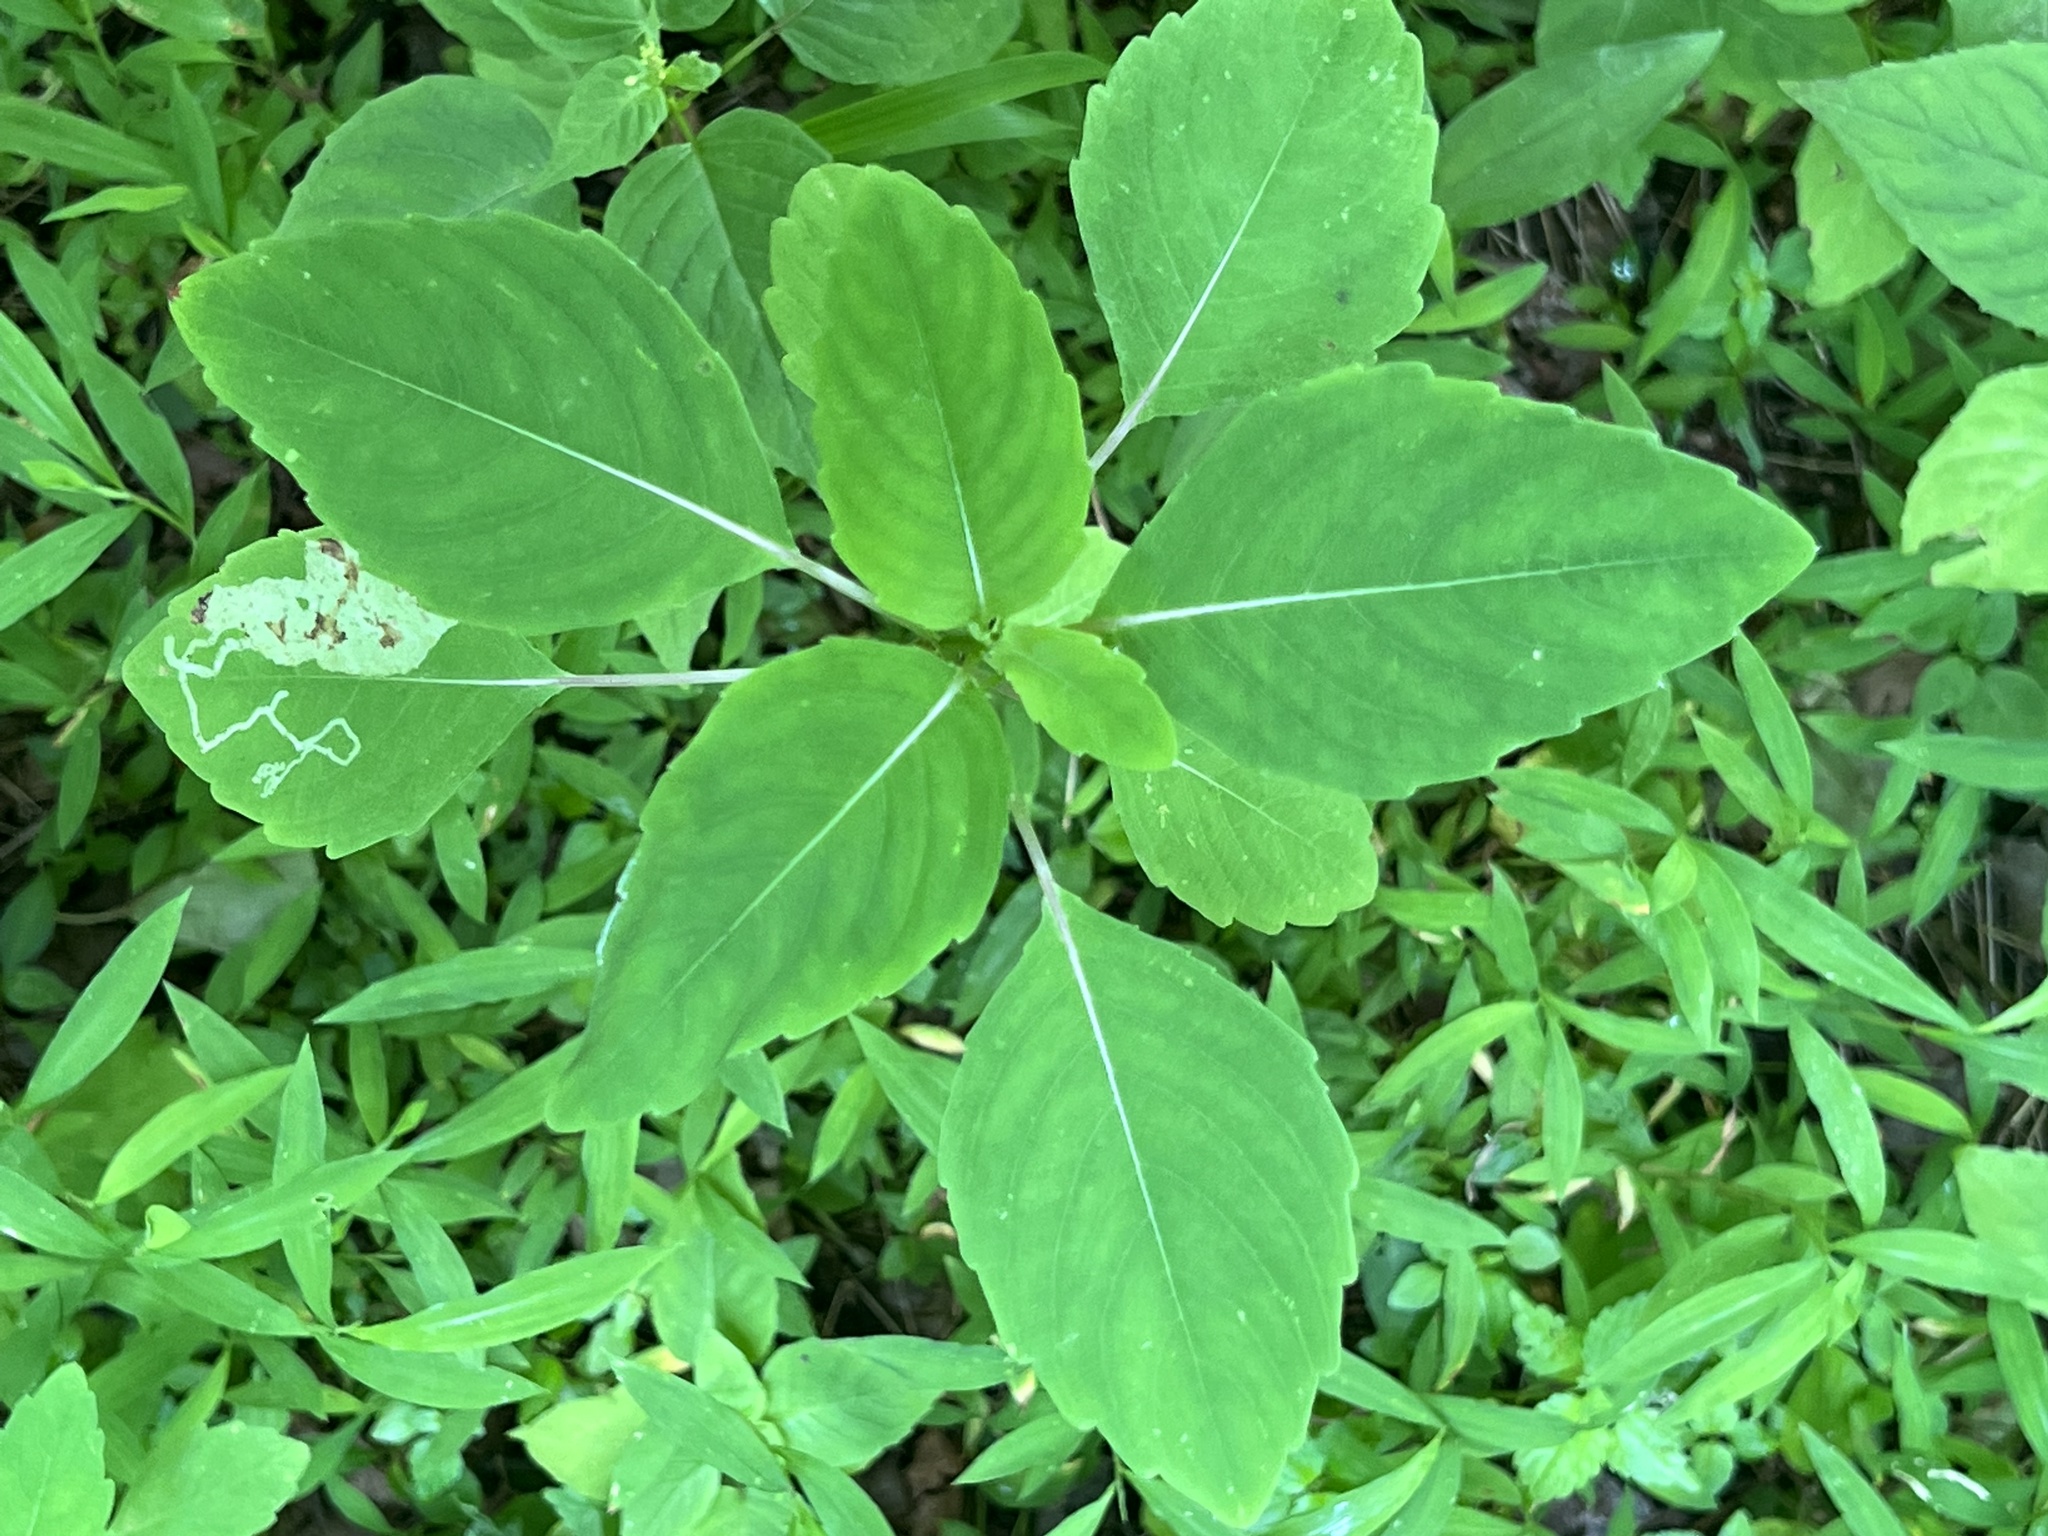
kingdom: Animalia
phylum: Arthropoda
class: Insecta
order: Diptera
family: Agromyzidae
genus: Phytoliriomyza
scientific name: Phytoliriomyza melampyga
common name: Jewelweed leaf-miner fly
